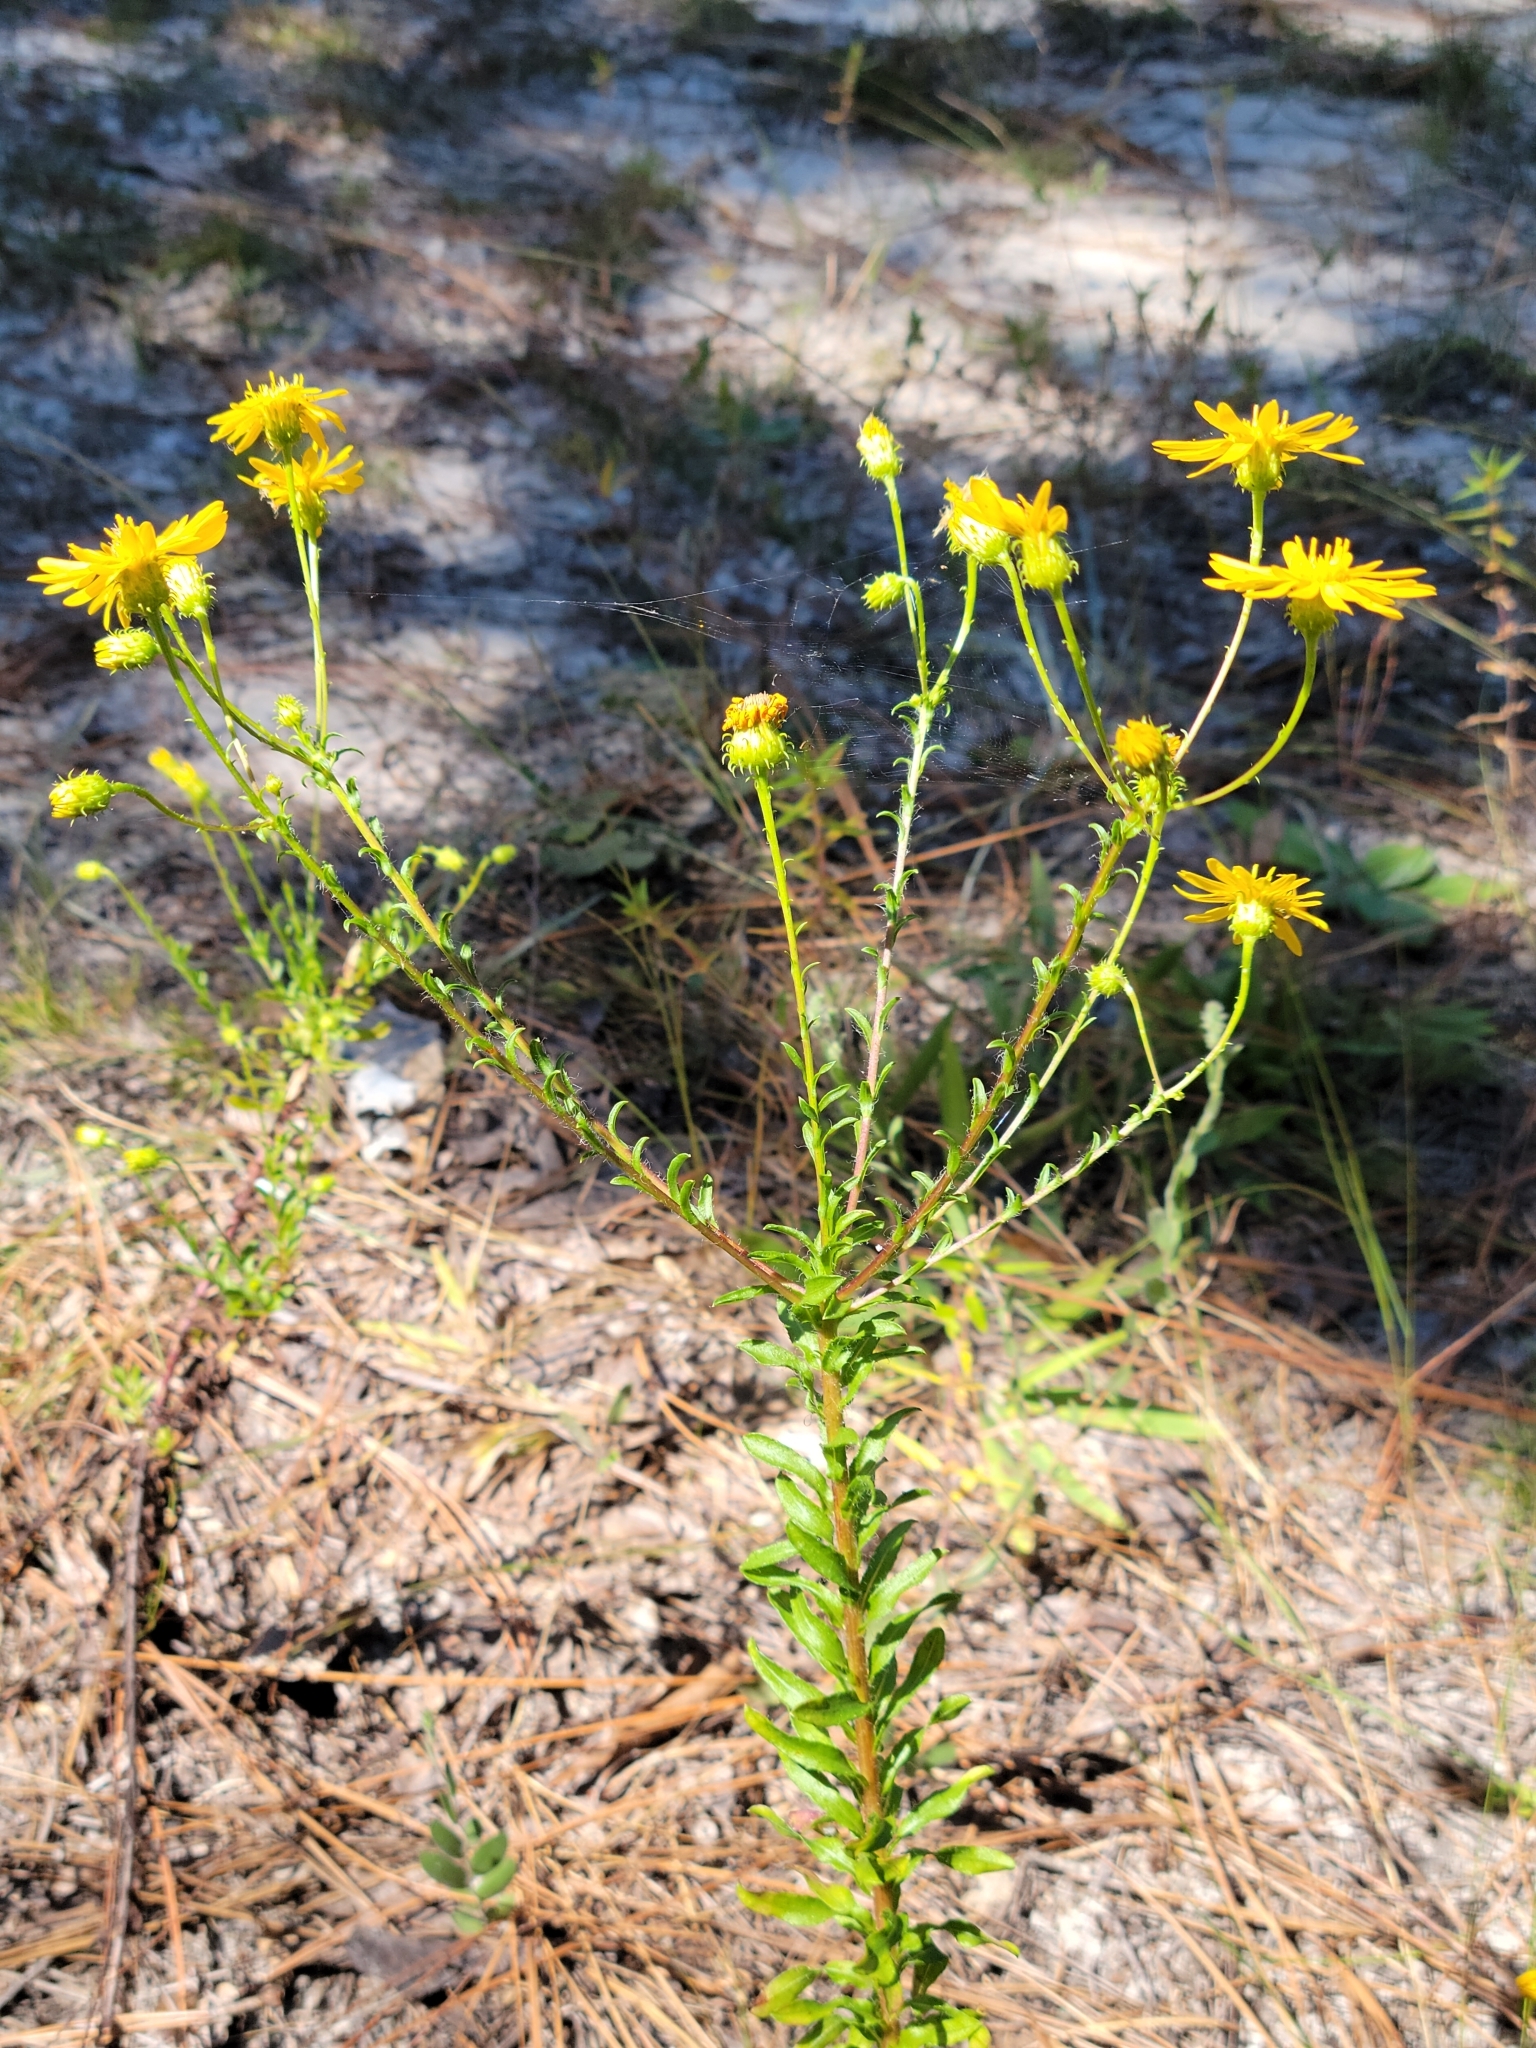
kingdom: Plantae
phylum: Tracheophyta
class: Magnoliopsida
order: Asterales
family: Asteraceae
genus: Chrysopsis
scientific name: Chrysopsis gossypina
